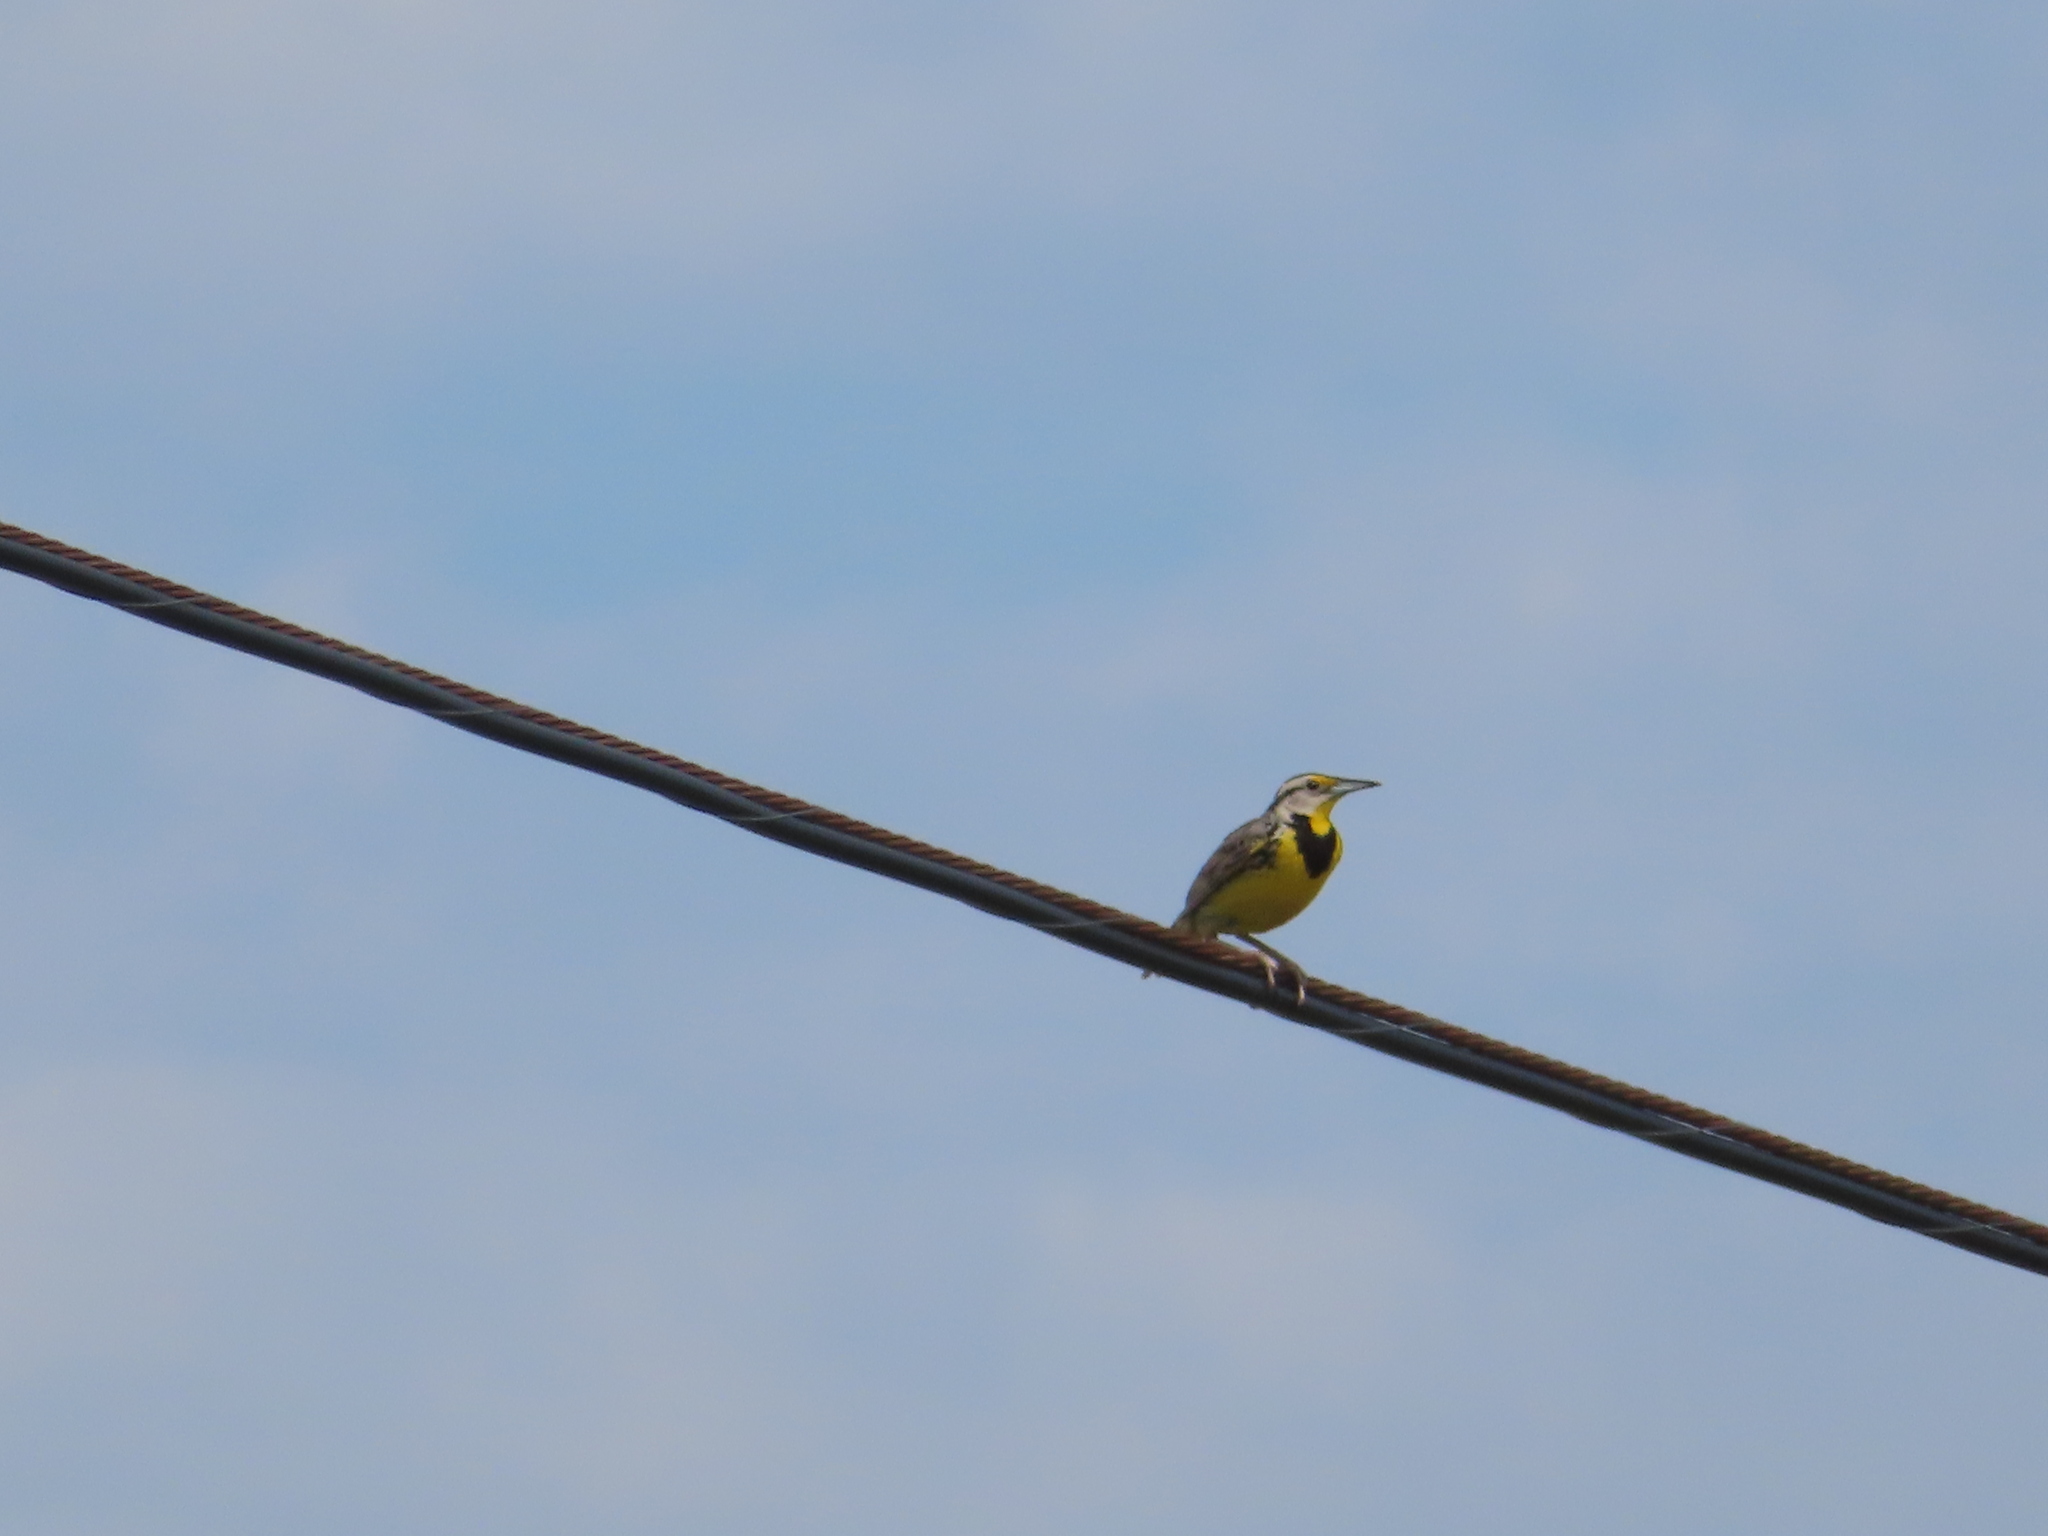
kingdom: Animalia
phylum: Chordata
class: Aves
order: Passeriformes
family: Icteridae
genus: Sturnella
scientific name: Sturnella magna
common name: Eastern meadowlark
